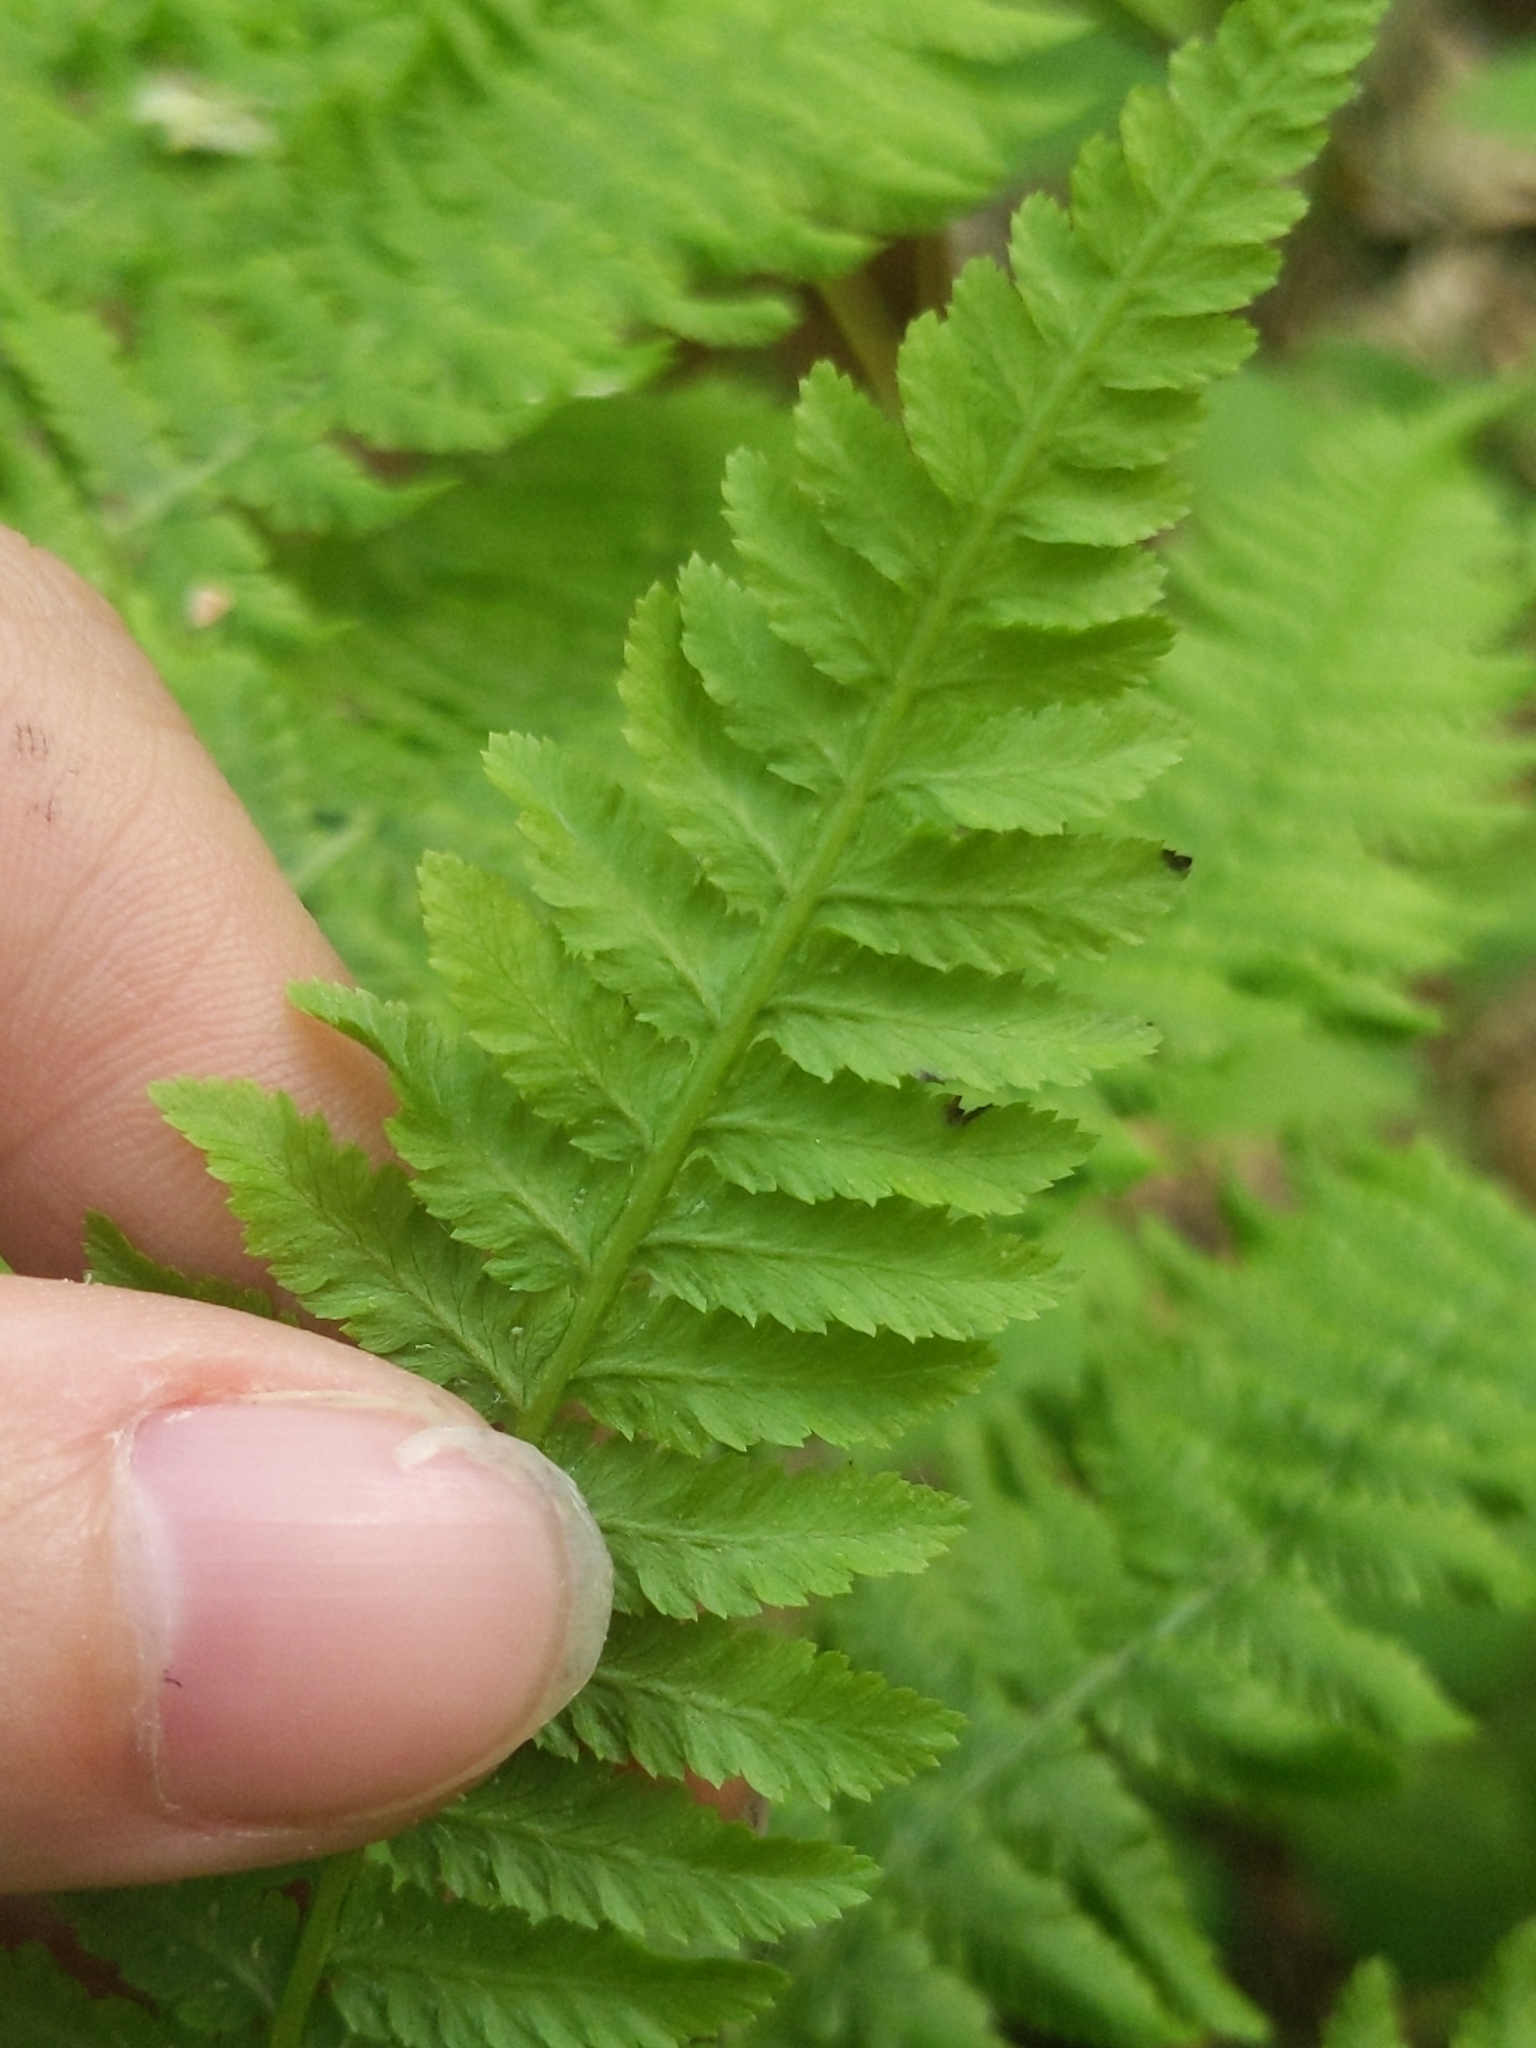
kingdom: Plantae
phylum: Tracheophyta
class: Polypodiopsida
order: Polypodiales
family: Athyriaceae
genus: Athyrium
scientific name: Athyrium angustum
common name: Northern lady fern
